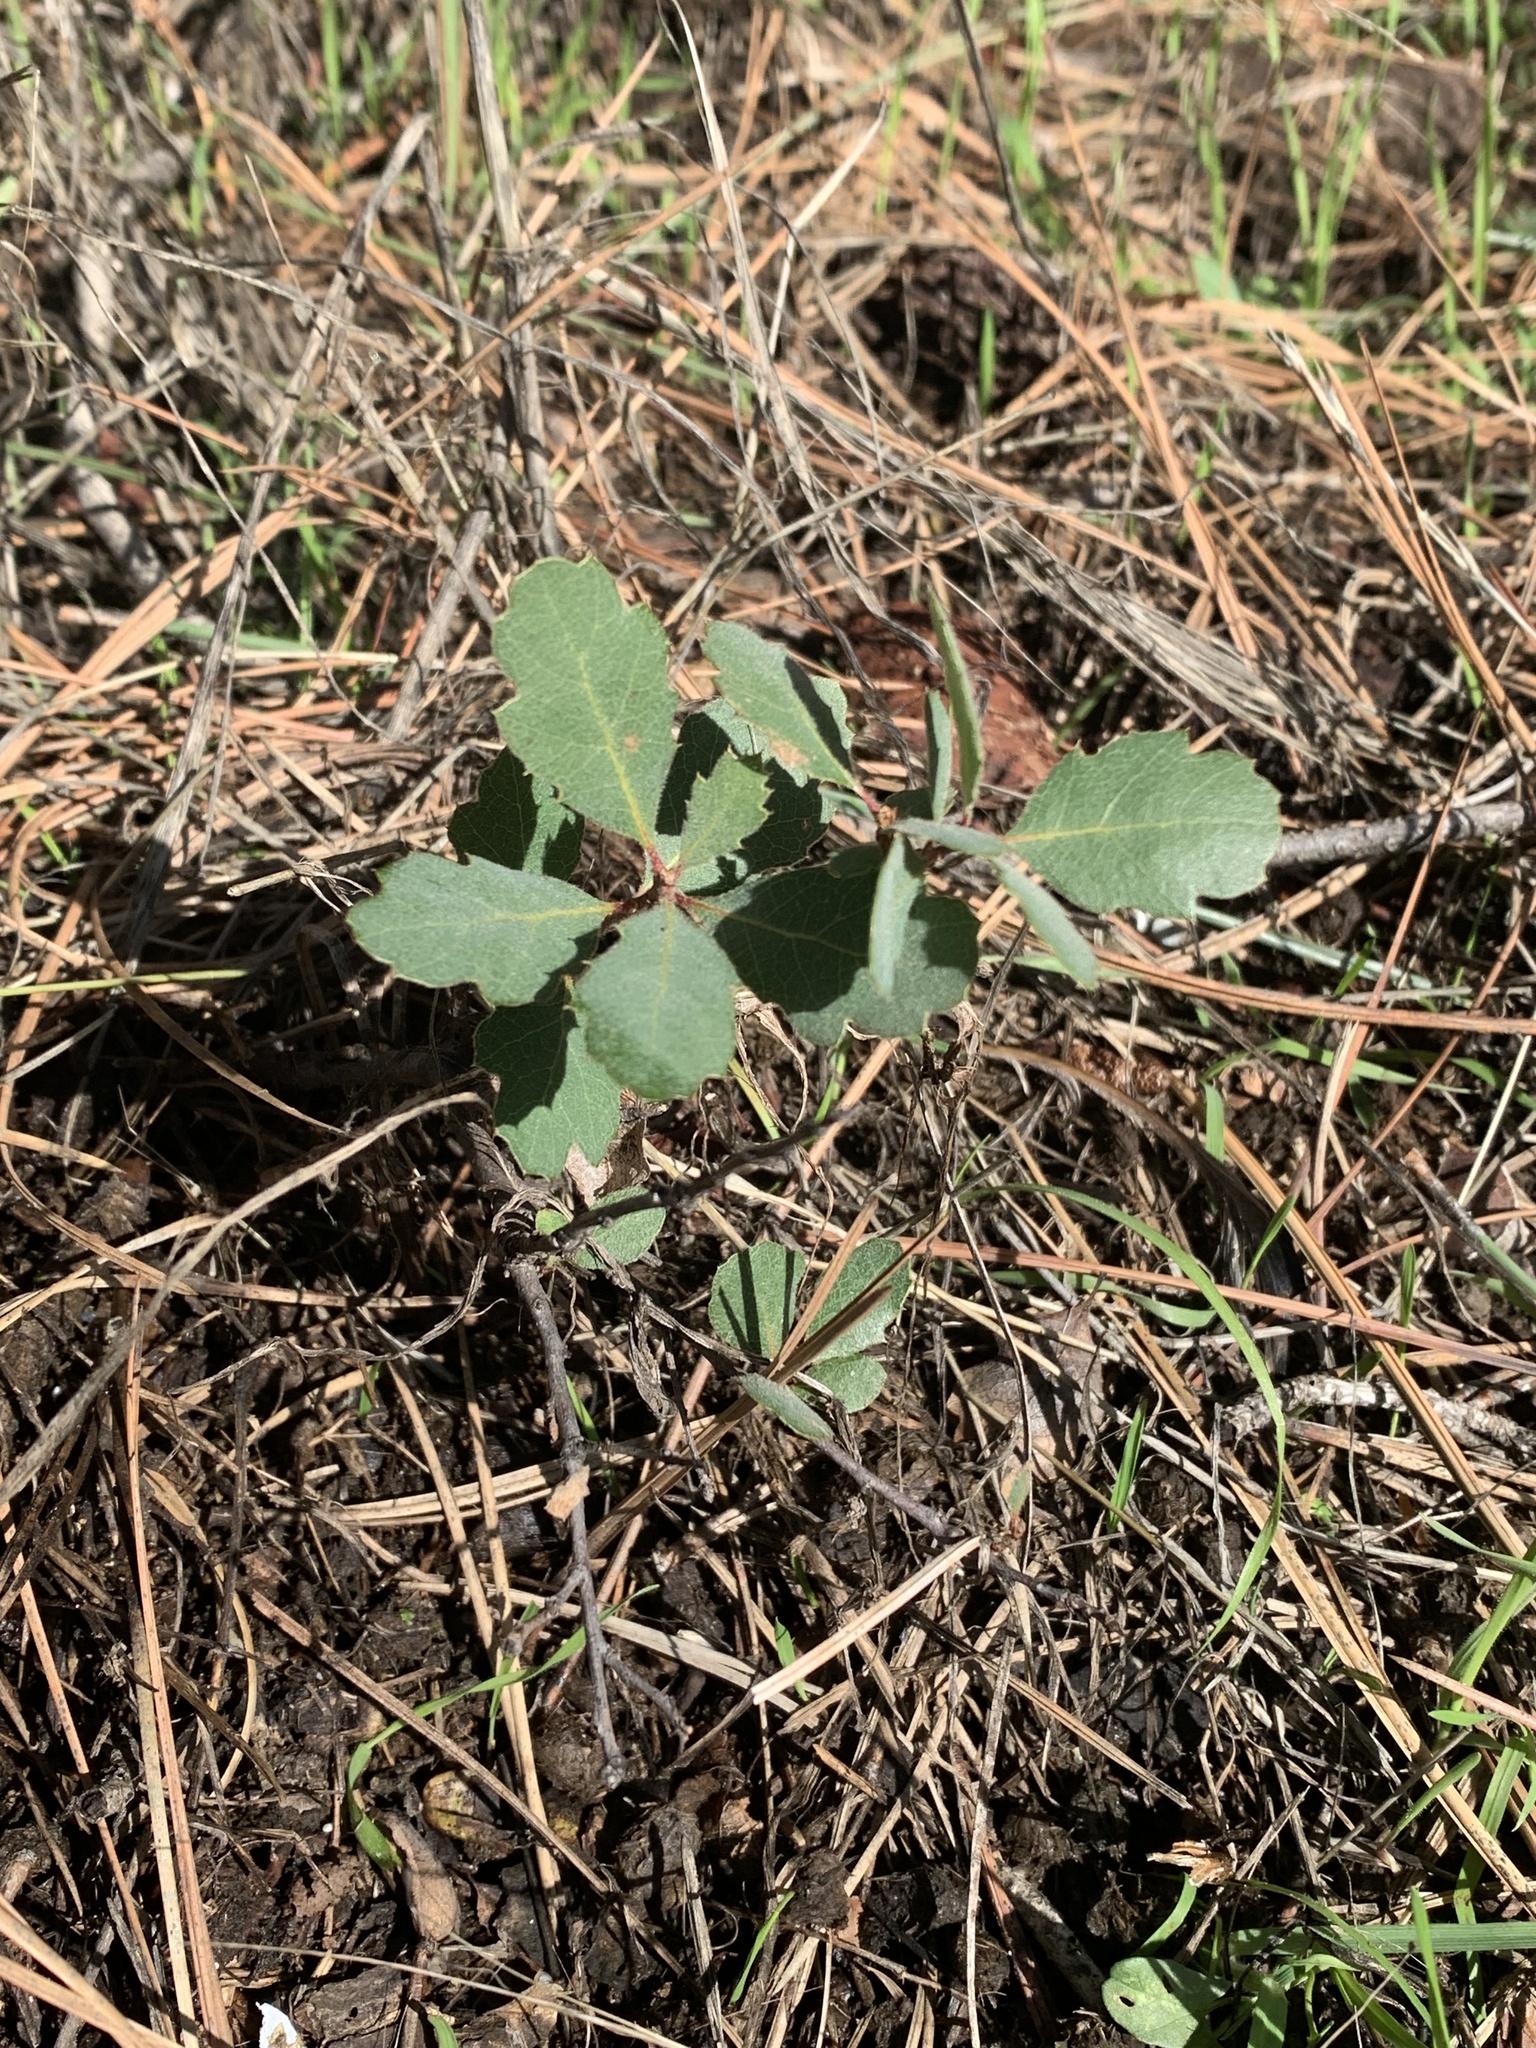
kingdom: Plantae
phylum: Tracheophyta
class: Magnoliopsida
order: Fagales
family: Fagaceae
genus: Quercus
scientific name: Quercus douglasii
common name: Blue oak
